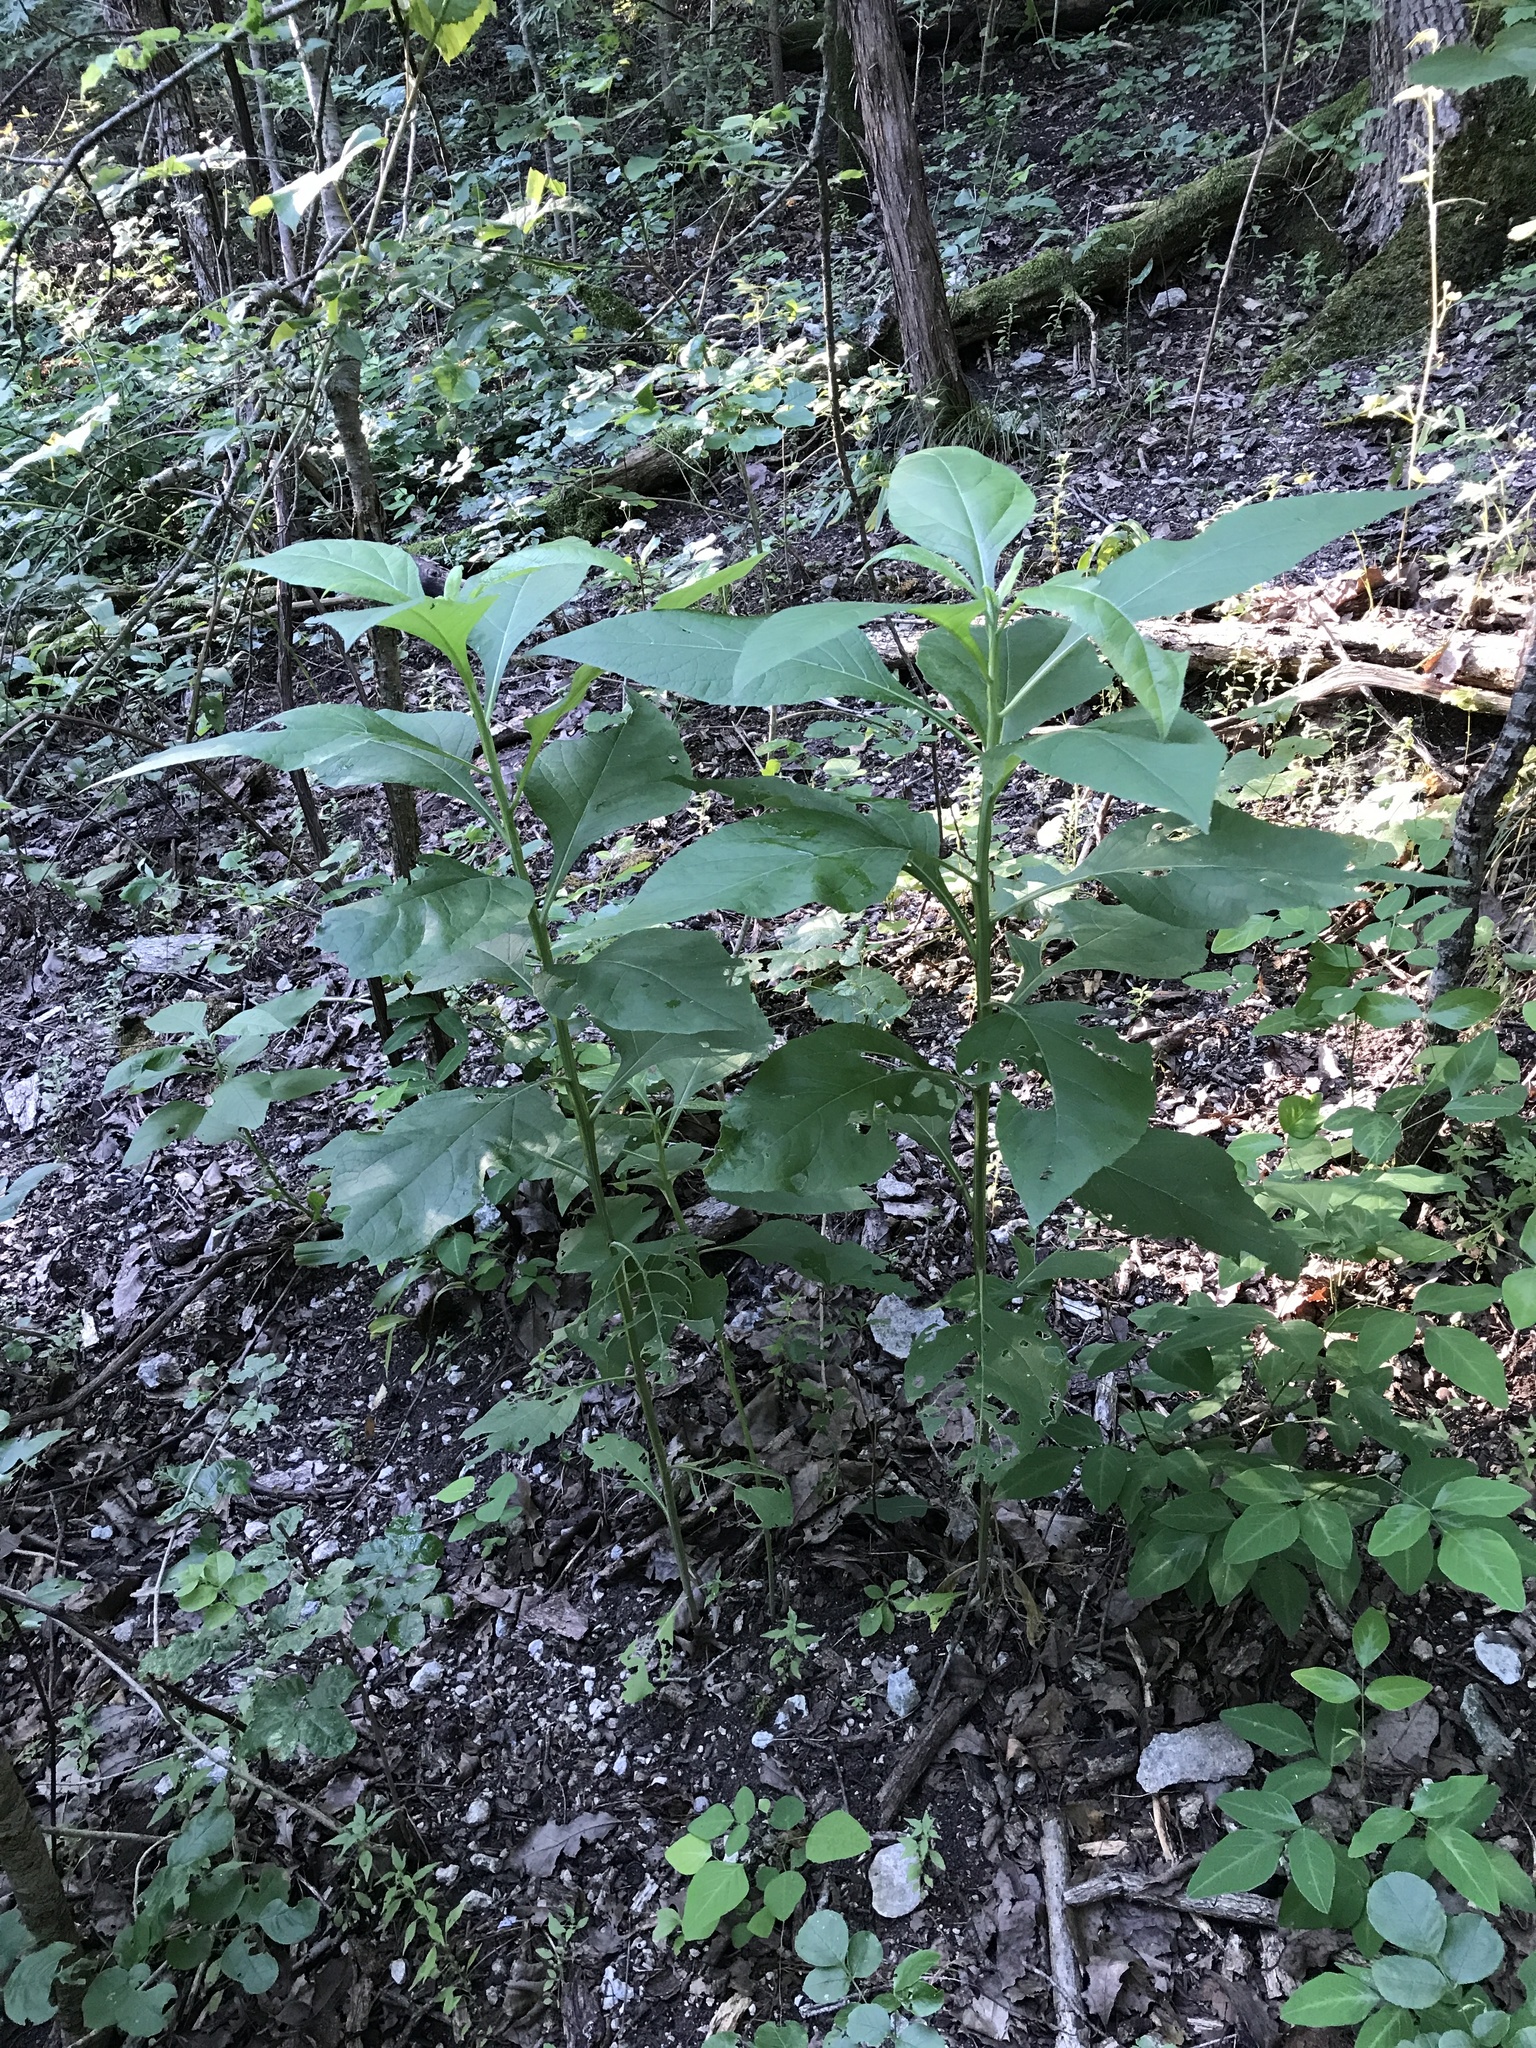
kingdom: Plantae
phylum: Tracheophyta
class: Magnoliopsida
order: Asterales
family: Asteraceae
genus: Verbesina
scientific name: Verbesina virginica
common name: Frostweed
